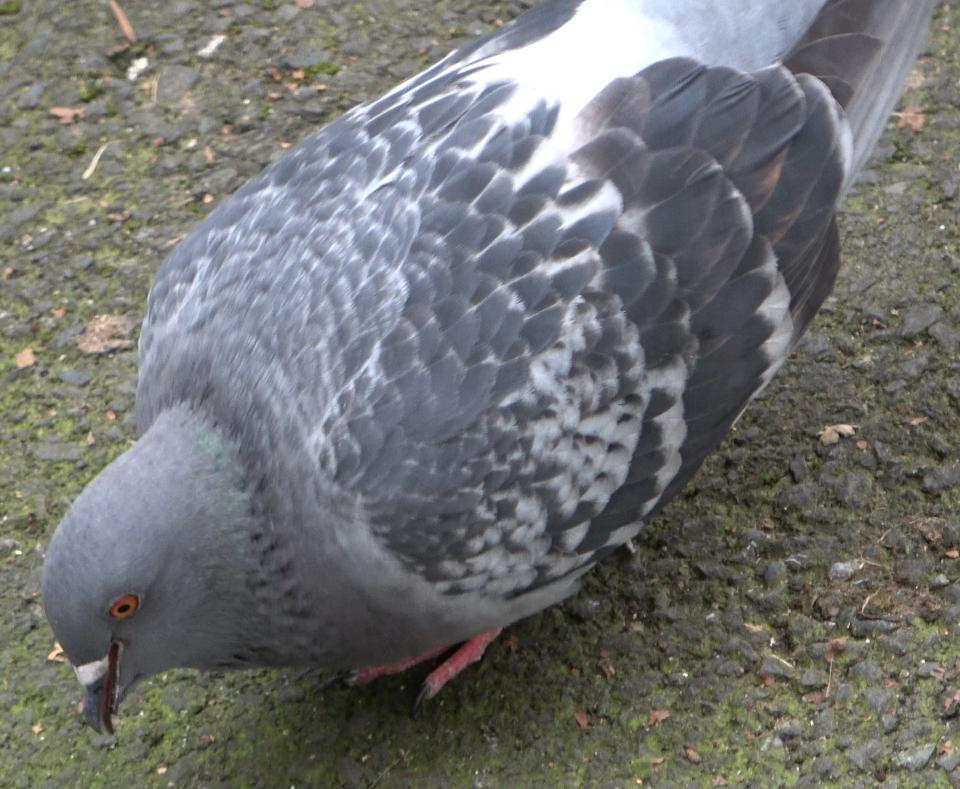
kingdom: Animalia
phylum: Chordata
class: Aves
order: Columbiformes
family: Columbidae
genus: Columba
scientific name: Columba livia
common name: Rock pigeon
